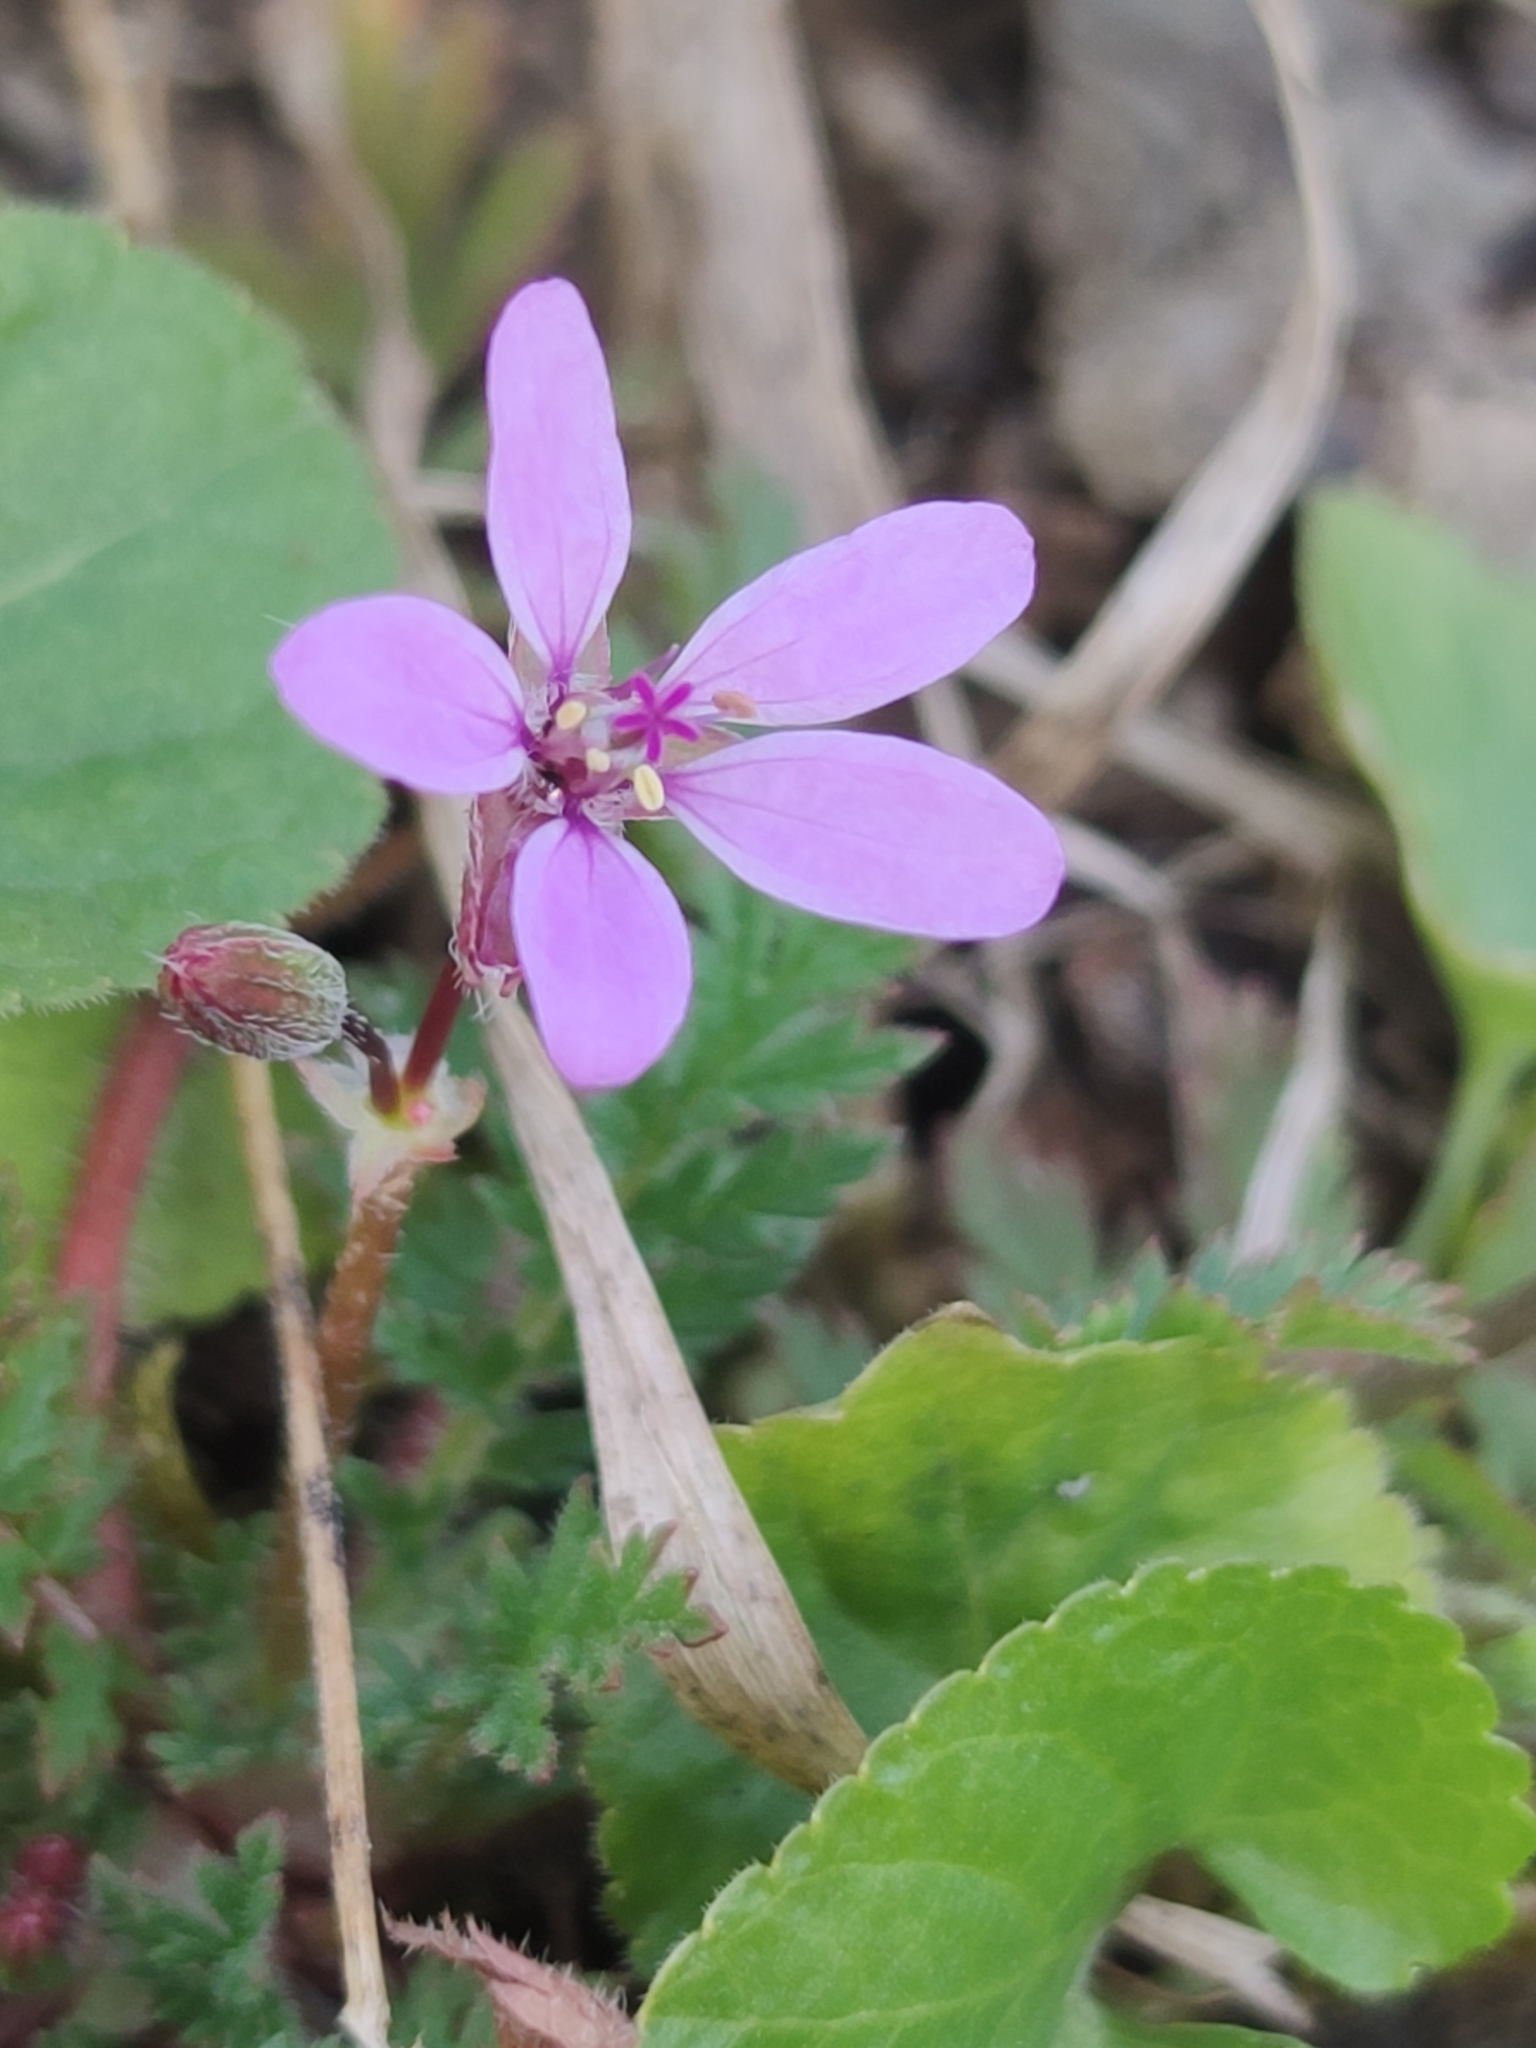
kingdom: Plantae
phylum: Tracheophyta
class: Magnoliopsida
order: Geraniales
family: Geraniaceae
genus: Erodium
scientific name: Erodium cicutarium
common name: Common stork's-bill
